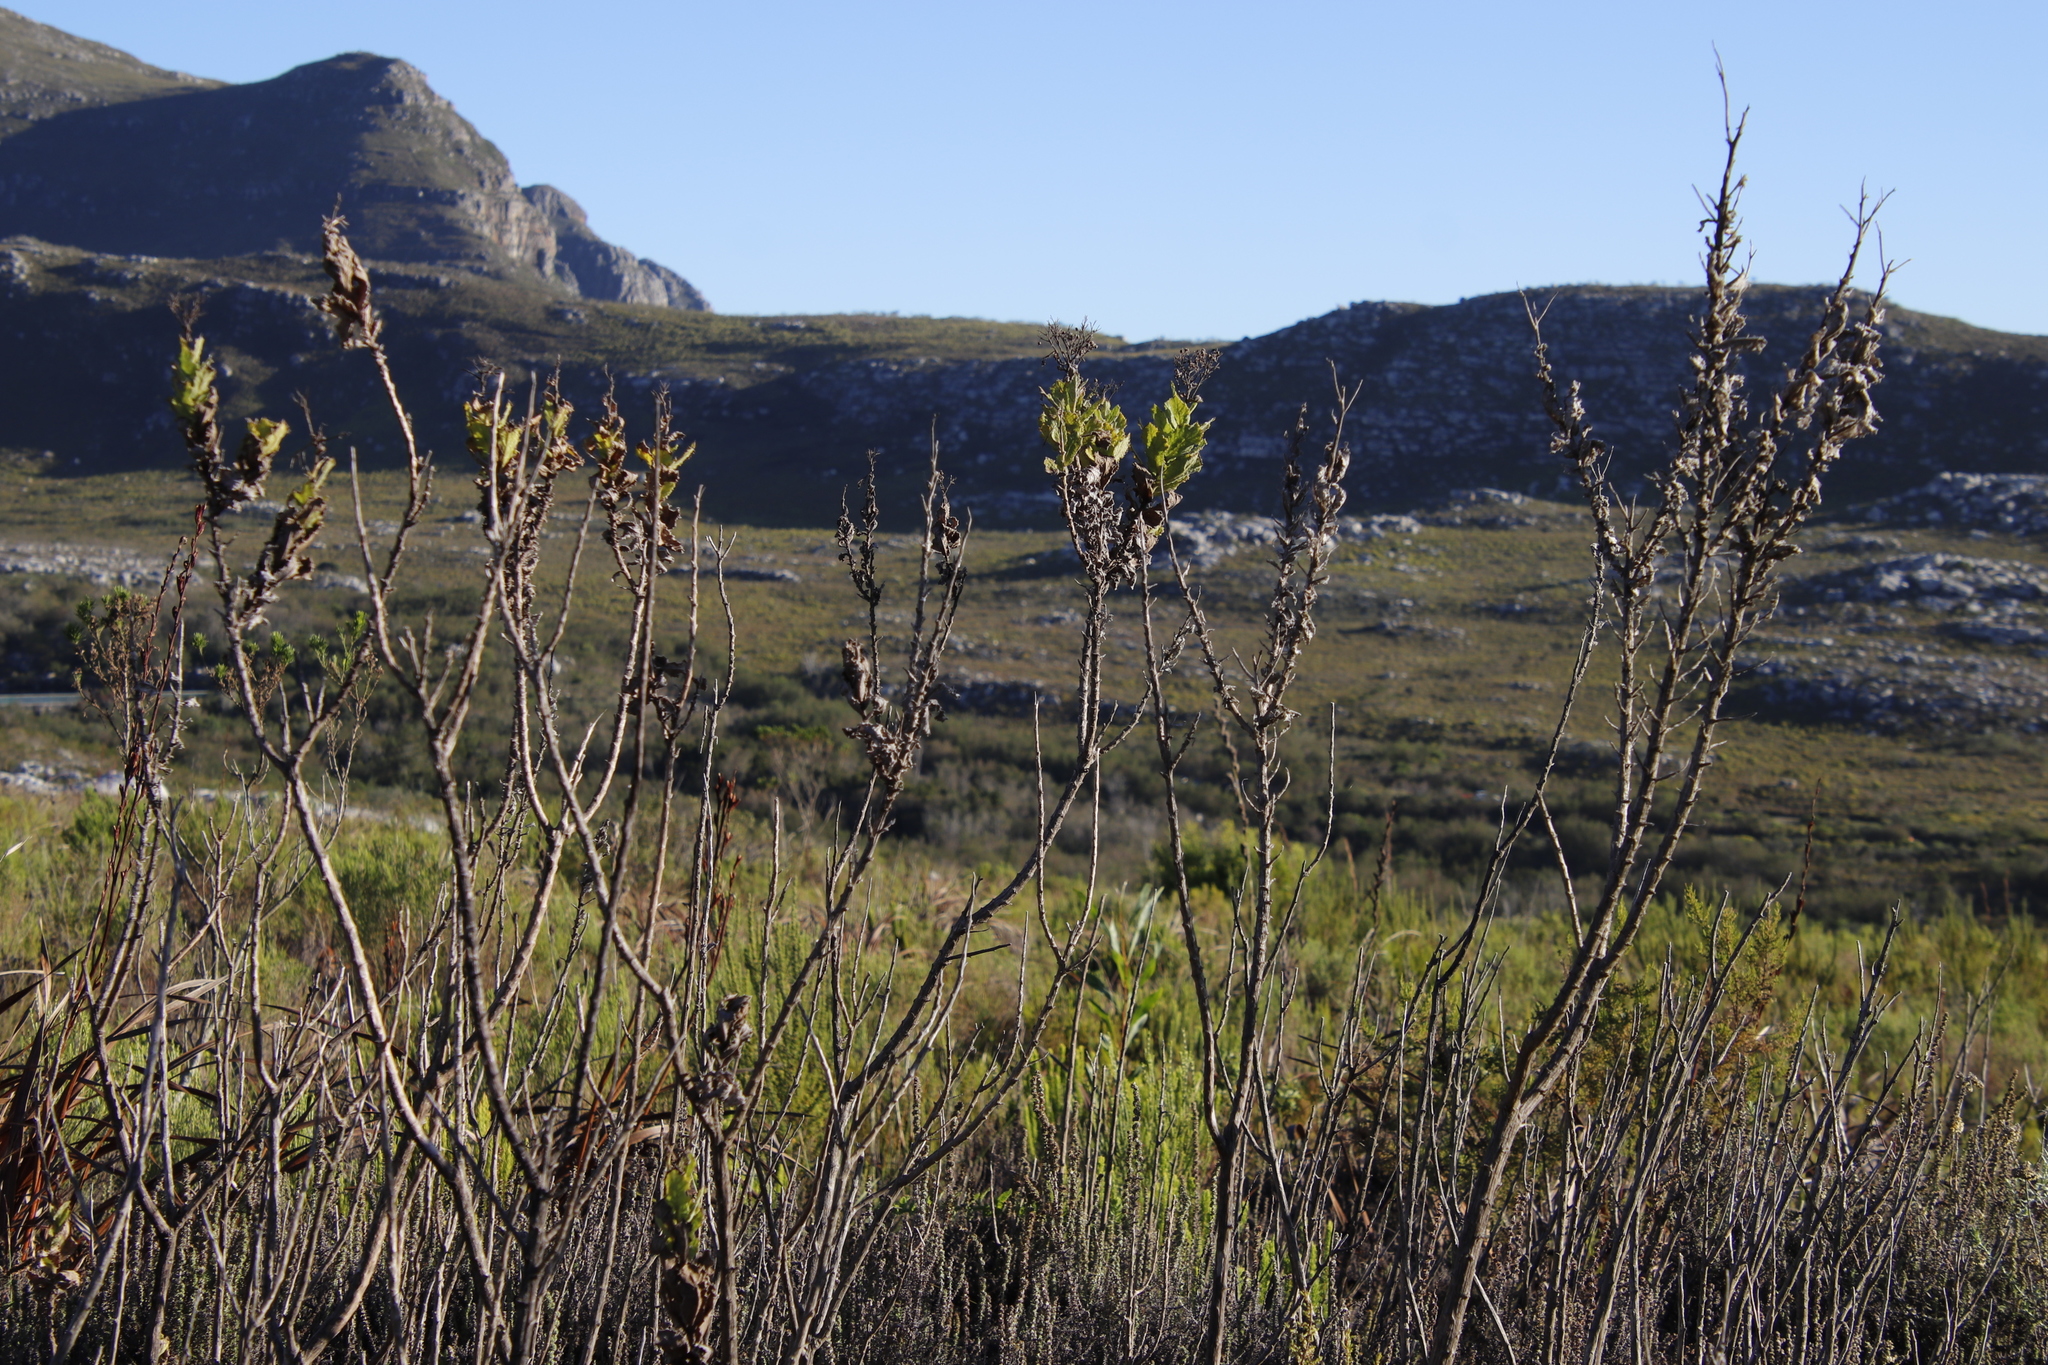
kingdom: Plantae
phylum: Tracheophyta
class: Magnoliopsida
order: Asterales
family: Asteraceae
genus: Senecio
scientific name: Senecio rigidus
